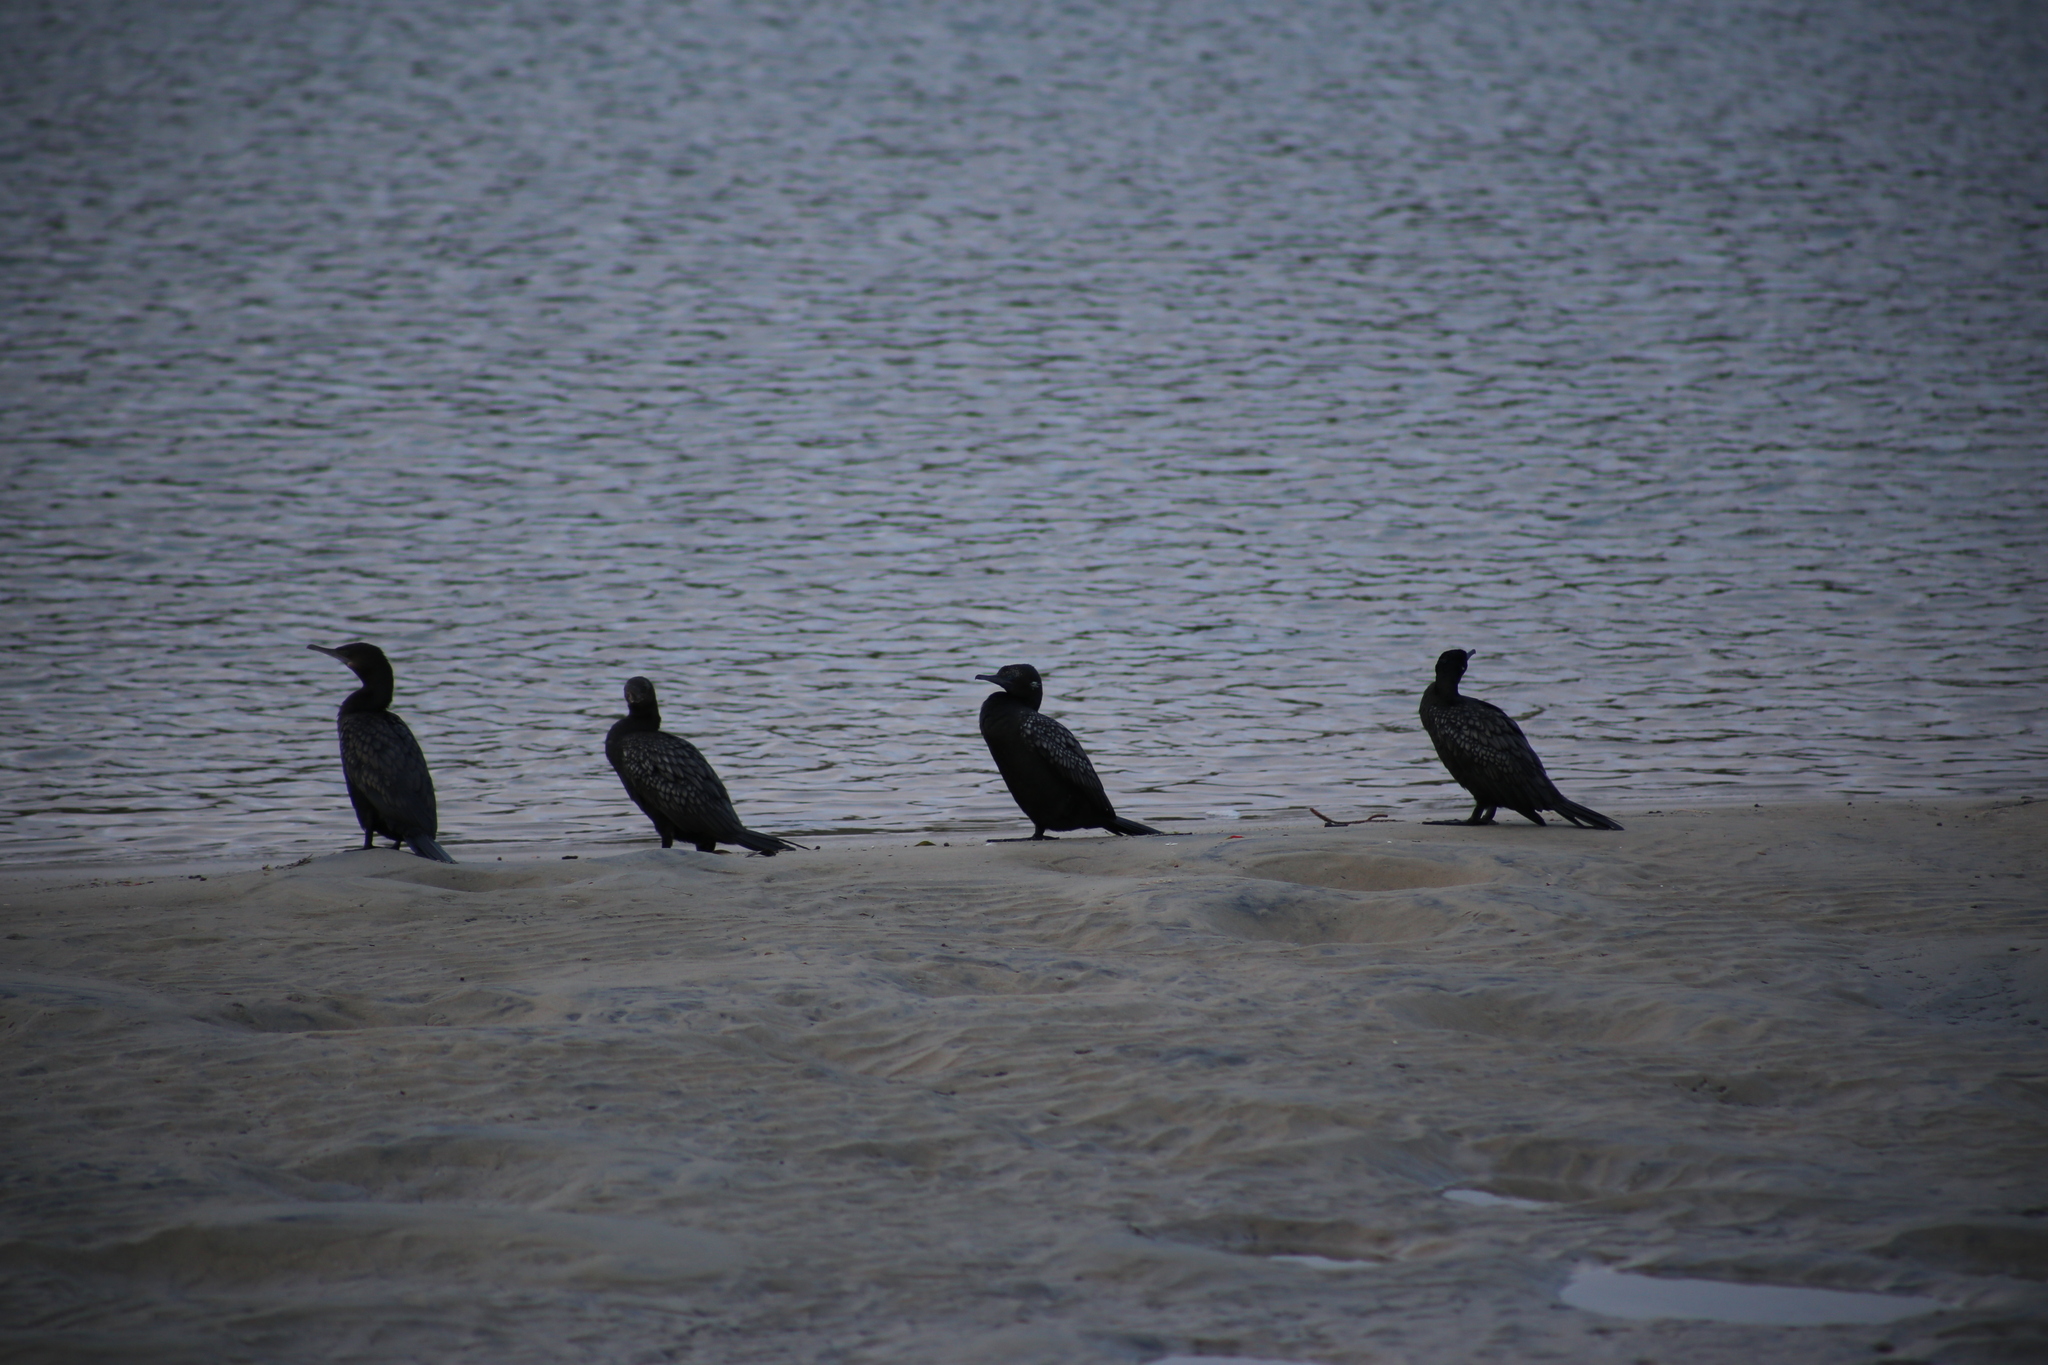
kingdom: Animalia
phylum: Chordata
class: Aves
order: Suliformes
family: Phalacrocoracidae
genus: Phalacrocorax
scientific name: Phalacrocorax sulcirostris
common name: Little black cormorant
